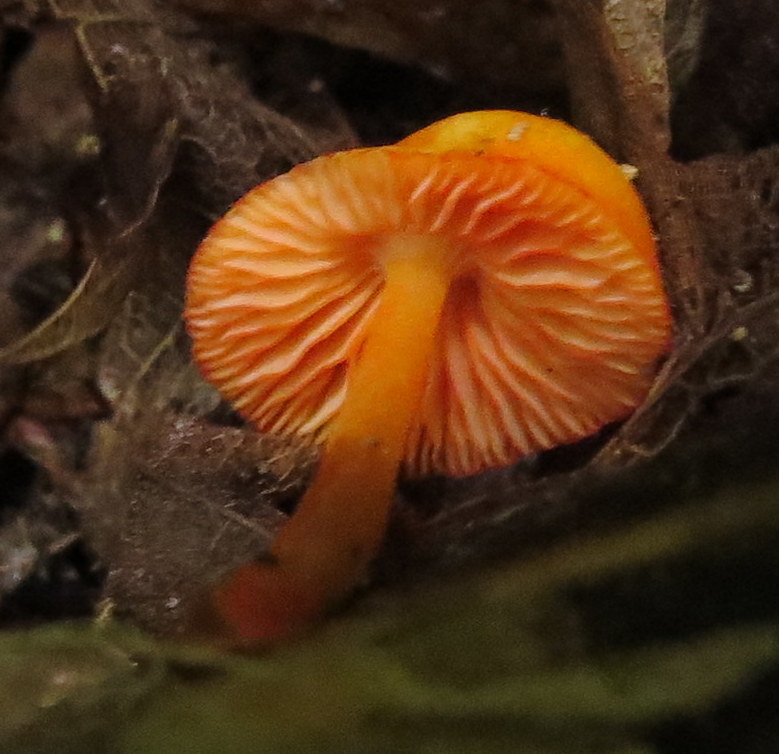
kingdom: Fungi
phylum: Basidiomycota
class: Agaricomycetes
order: Agaricales
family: Mycenaceae
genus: Mycena
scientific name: Mycena leaiana
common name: Orange mycena
